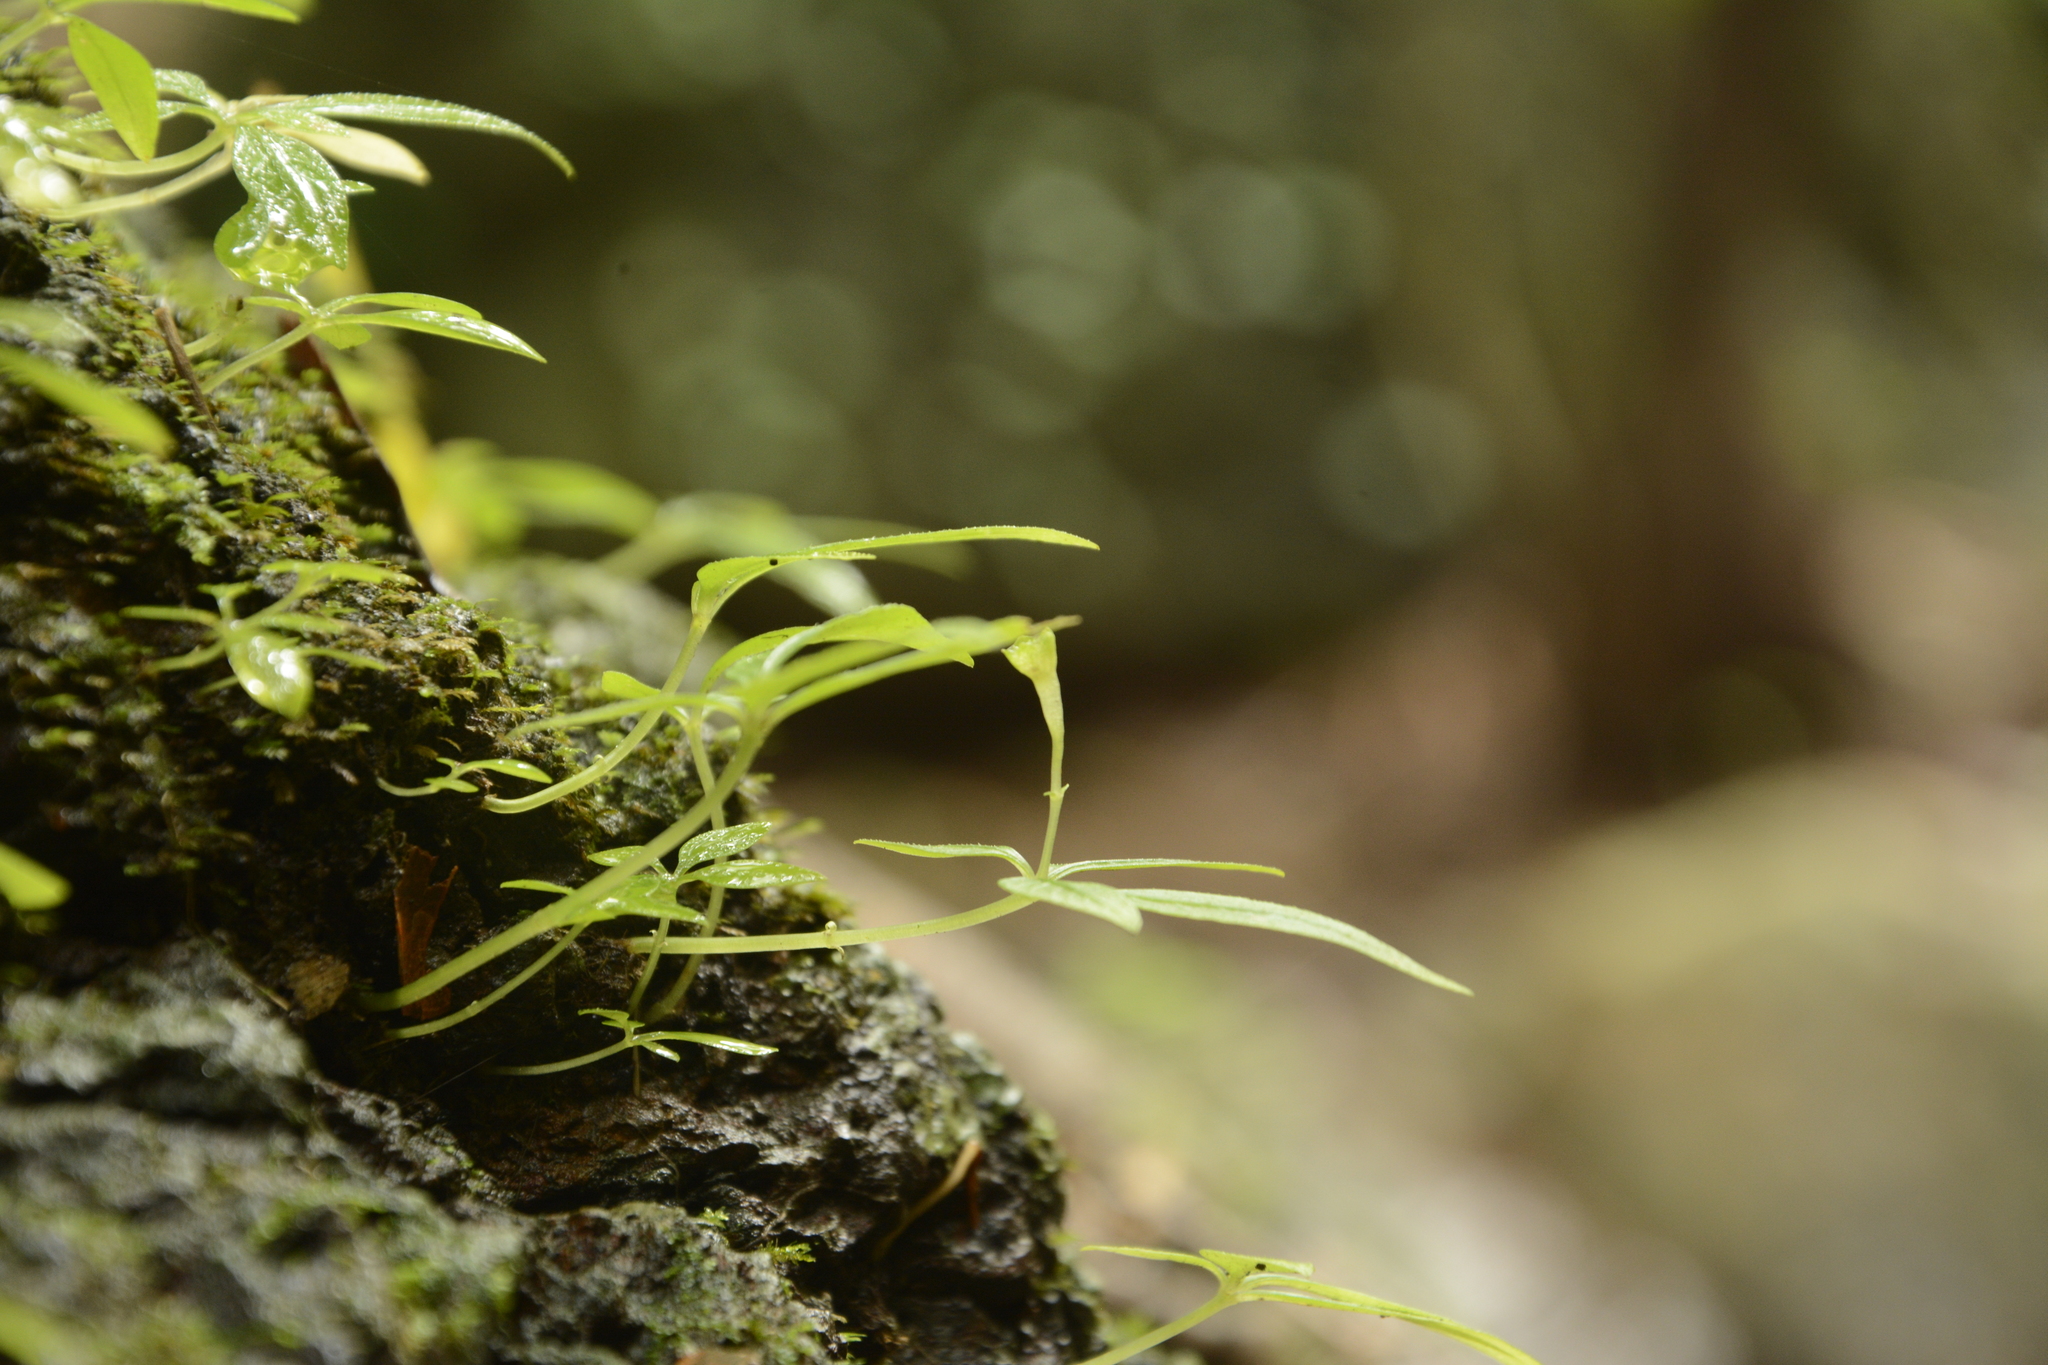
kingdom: Plantae
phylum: Tracheophyta
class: Magnoliopsida
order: Gentianales
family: Rubiaceae
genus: Argostemma
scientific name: Argostemma verticillatum
